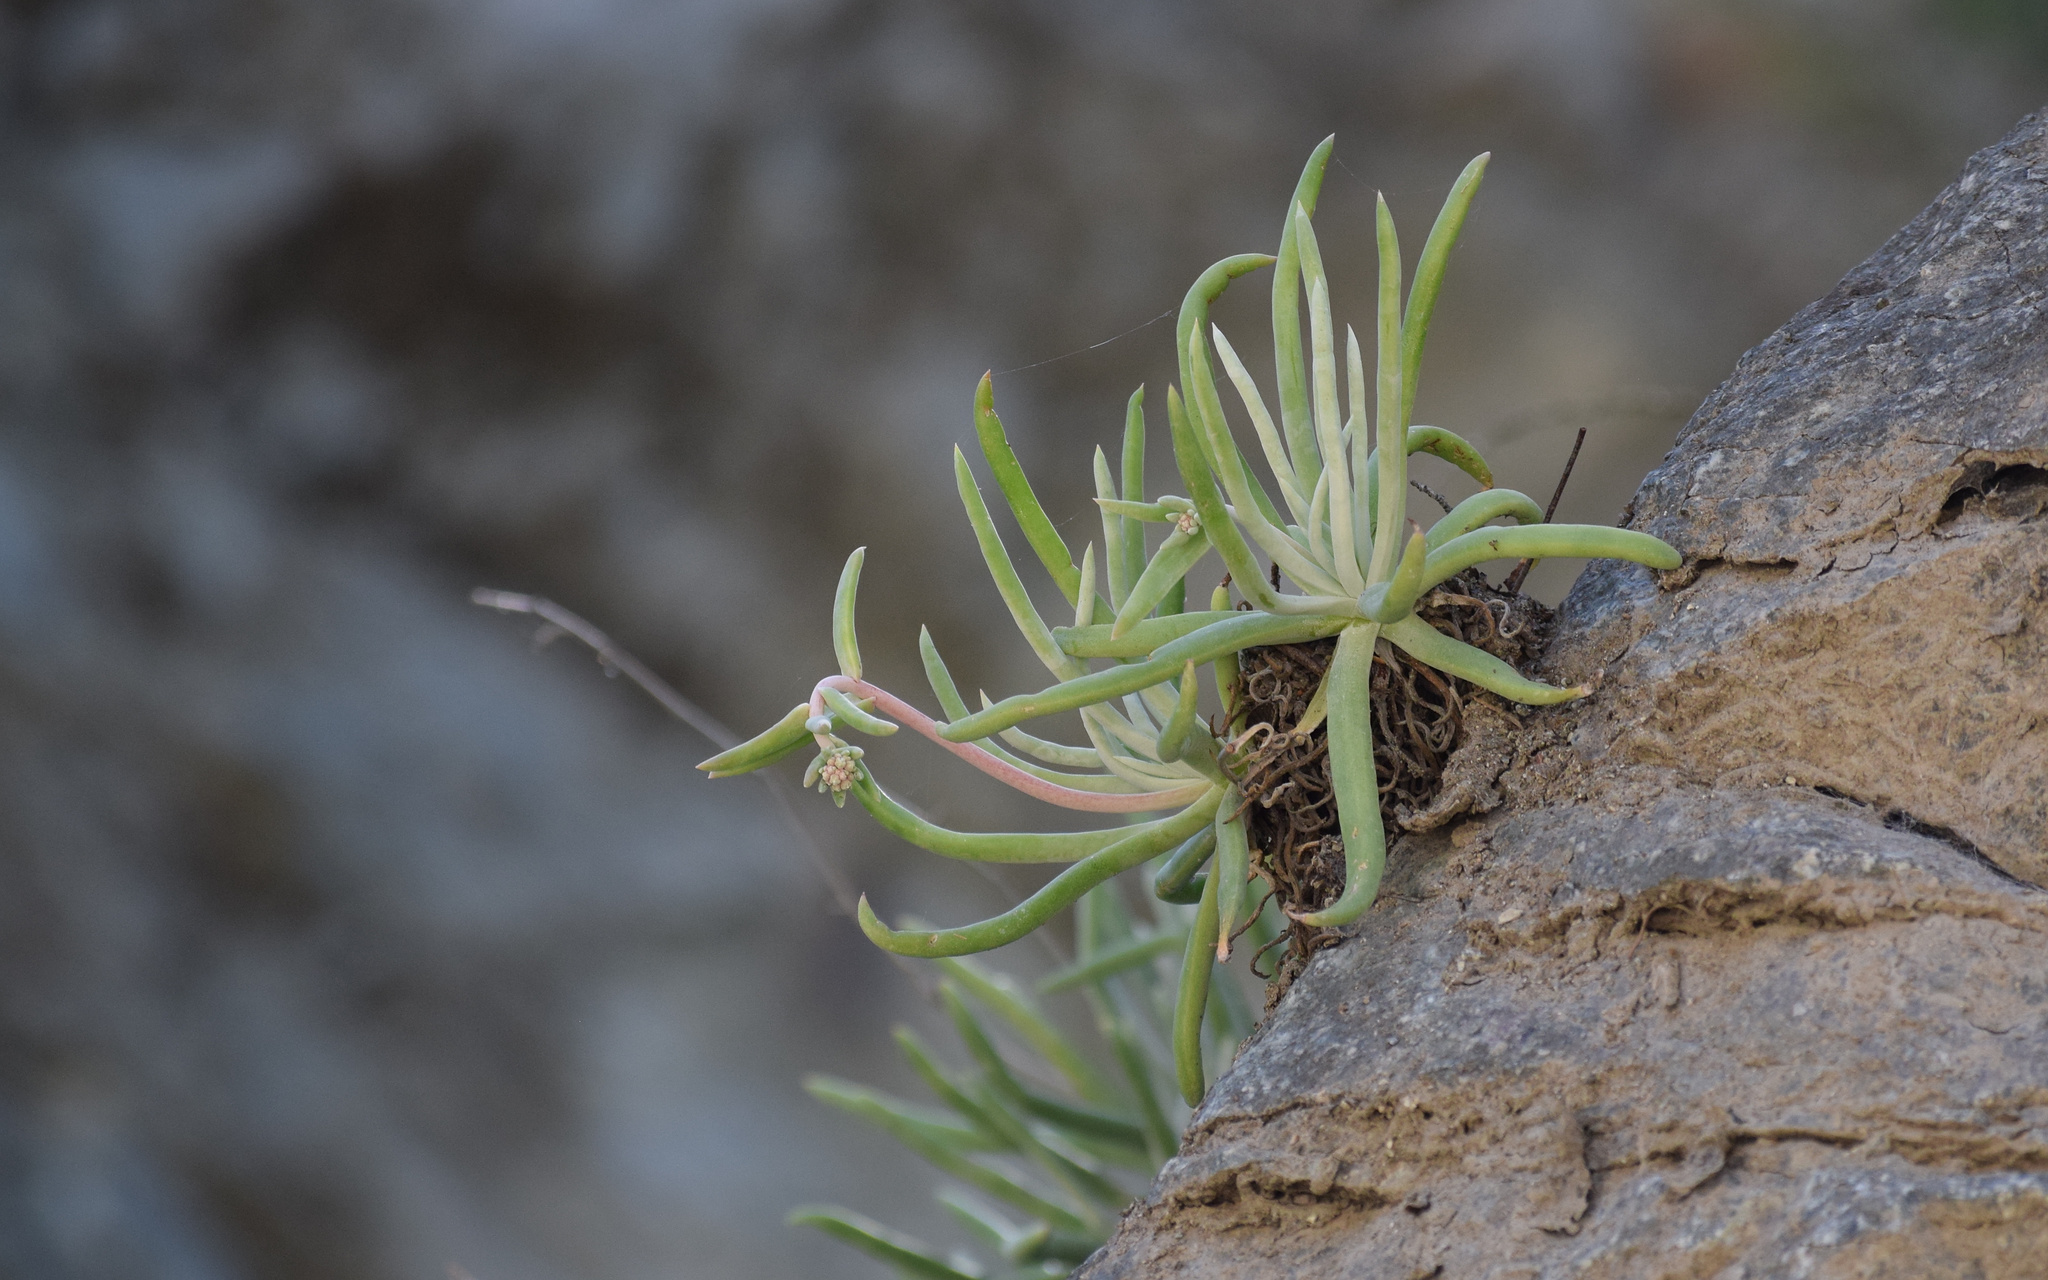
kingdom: Plantae
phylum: Tracheophyta
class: Magnoliopsida
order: Saxifragales
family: Crassulaceae
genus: Dudleya
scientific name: Dudleya densiflora
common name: San gabriel mountains dudleya
